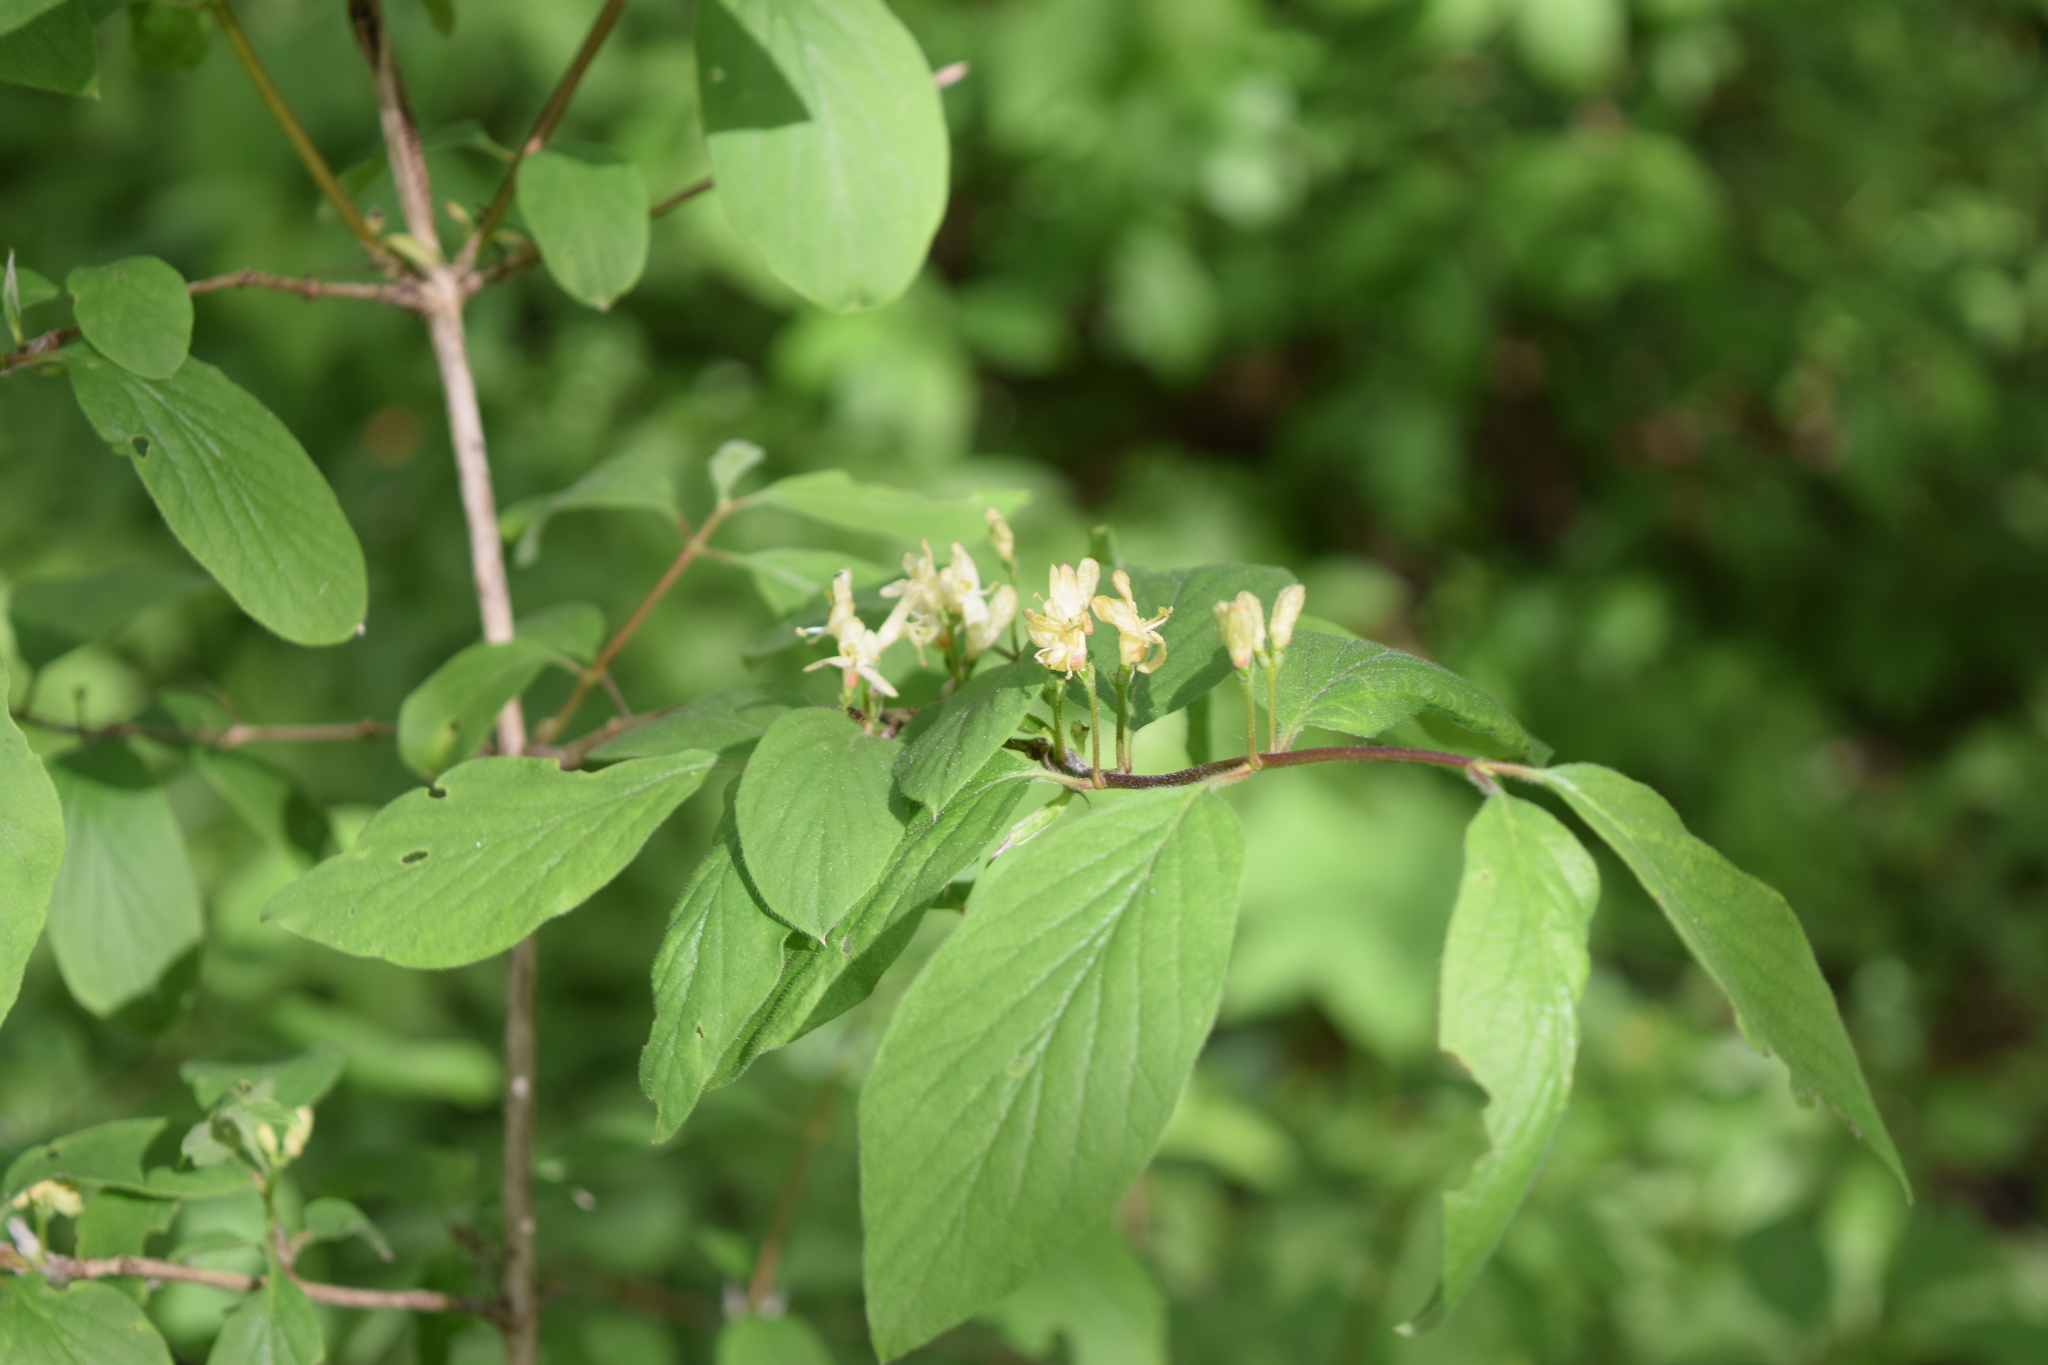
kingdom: Plantae
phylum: Tracheophyta
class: Magnoliopsida
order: Dipsacales
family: Caprifoliaceae
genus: Lonicera
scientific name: Lonicera xylosteum
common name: Fly honeysuckle
